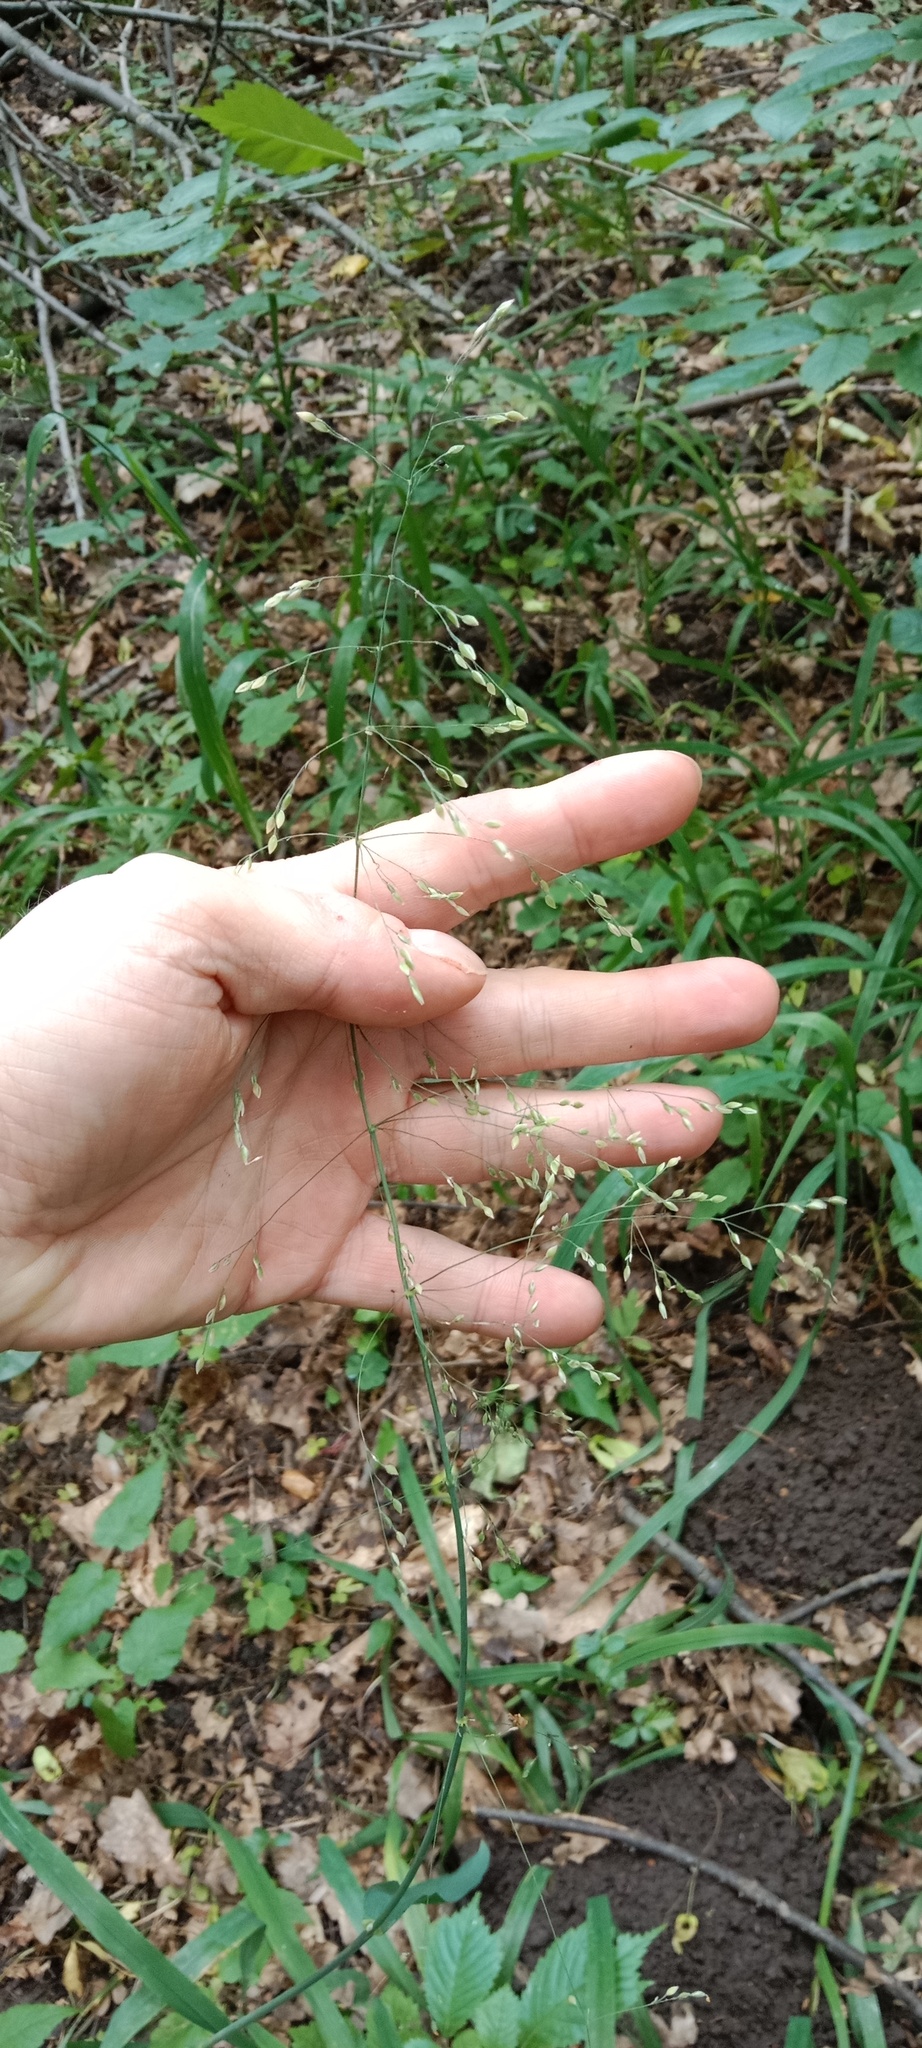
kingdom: Plantae
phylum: Tracheophyta
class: Liliopsida
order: Poales
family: Poaceae
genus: Milium
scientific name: Milium effusum
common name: Wood millet
